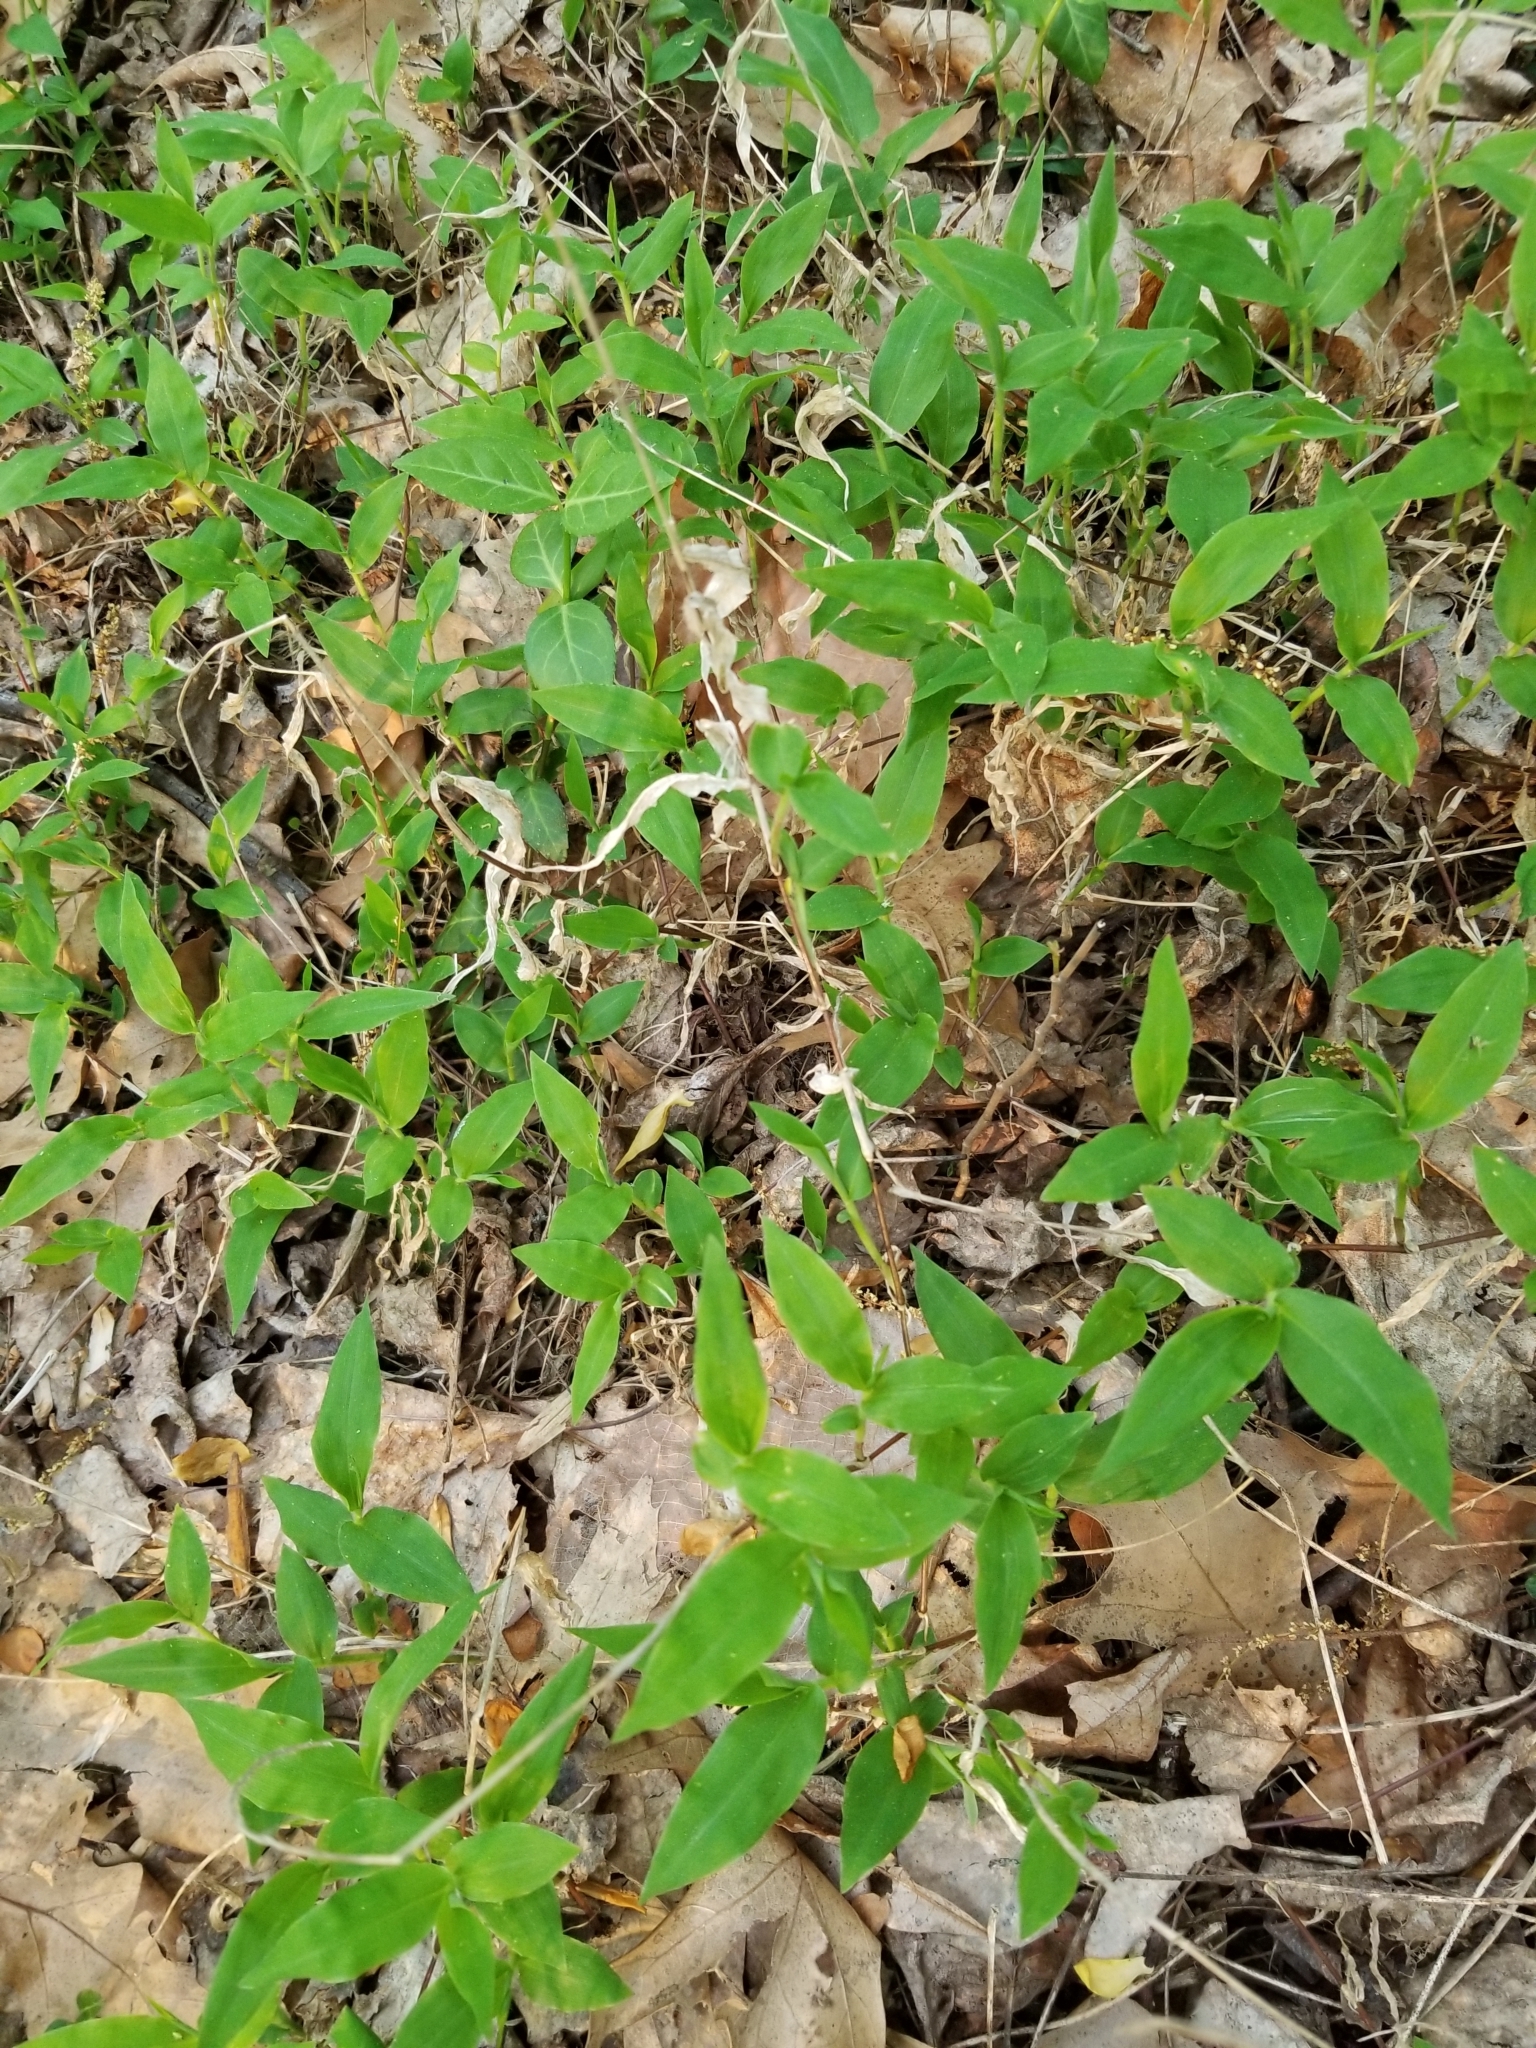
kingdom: Plantae
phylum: Tracheophyta
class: Liliopsida
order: Poales
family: Poaceae
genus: Oplismenus
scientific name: Oplismenus undulatifolius
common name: Wavyleaf basketgrass
